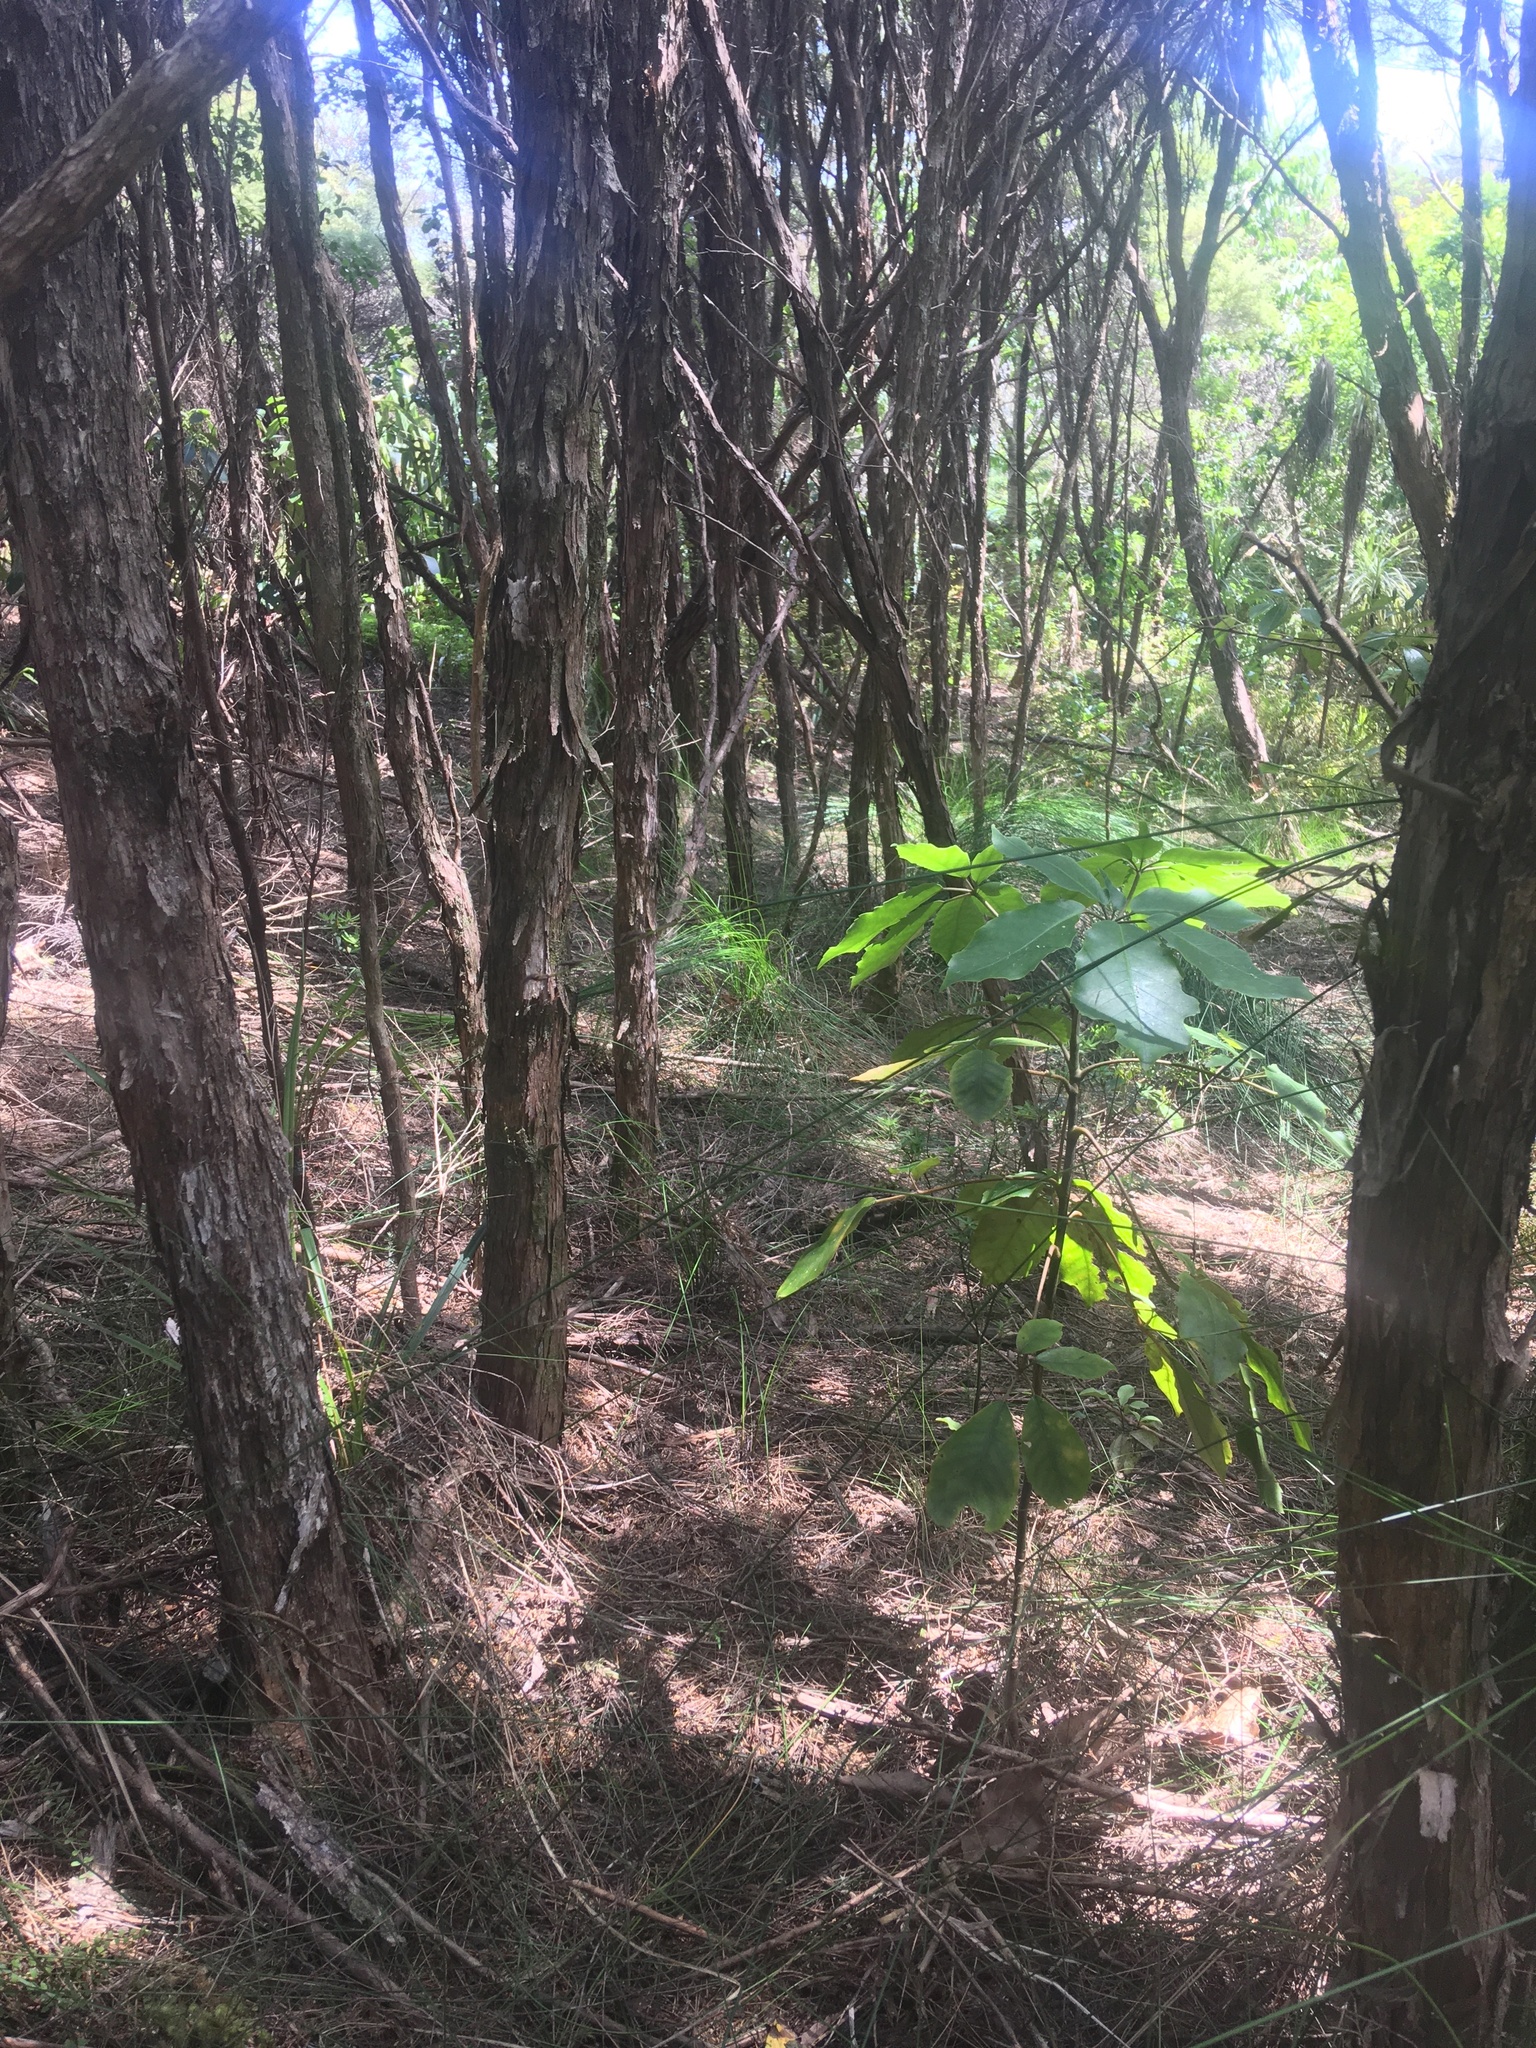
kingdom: Plantae
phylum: Tracheophyta
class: Magnoliopsida
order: Apiales
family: Araliaceae
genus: Neopanax
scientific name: Neopanax arboreus
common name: Five-fingers
